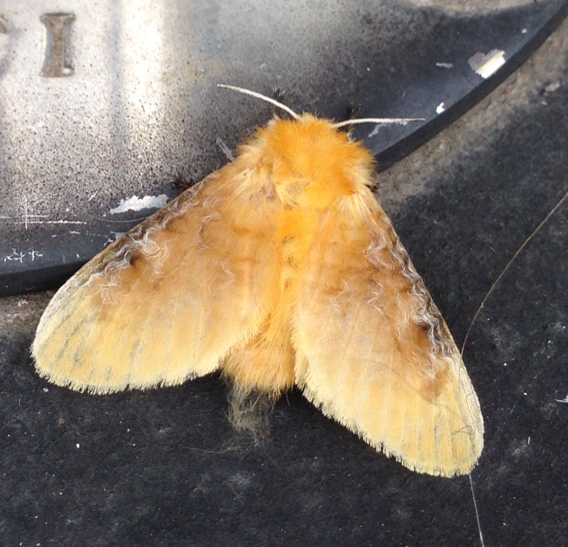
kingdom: Animalia
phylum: Arthropoda
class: Insecta
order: Lepidoptera
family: Megalopygidae
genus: Megalopyge
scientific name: Megalopyge opercularis
